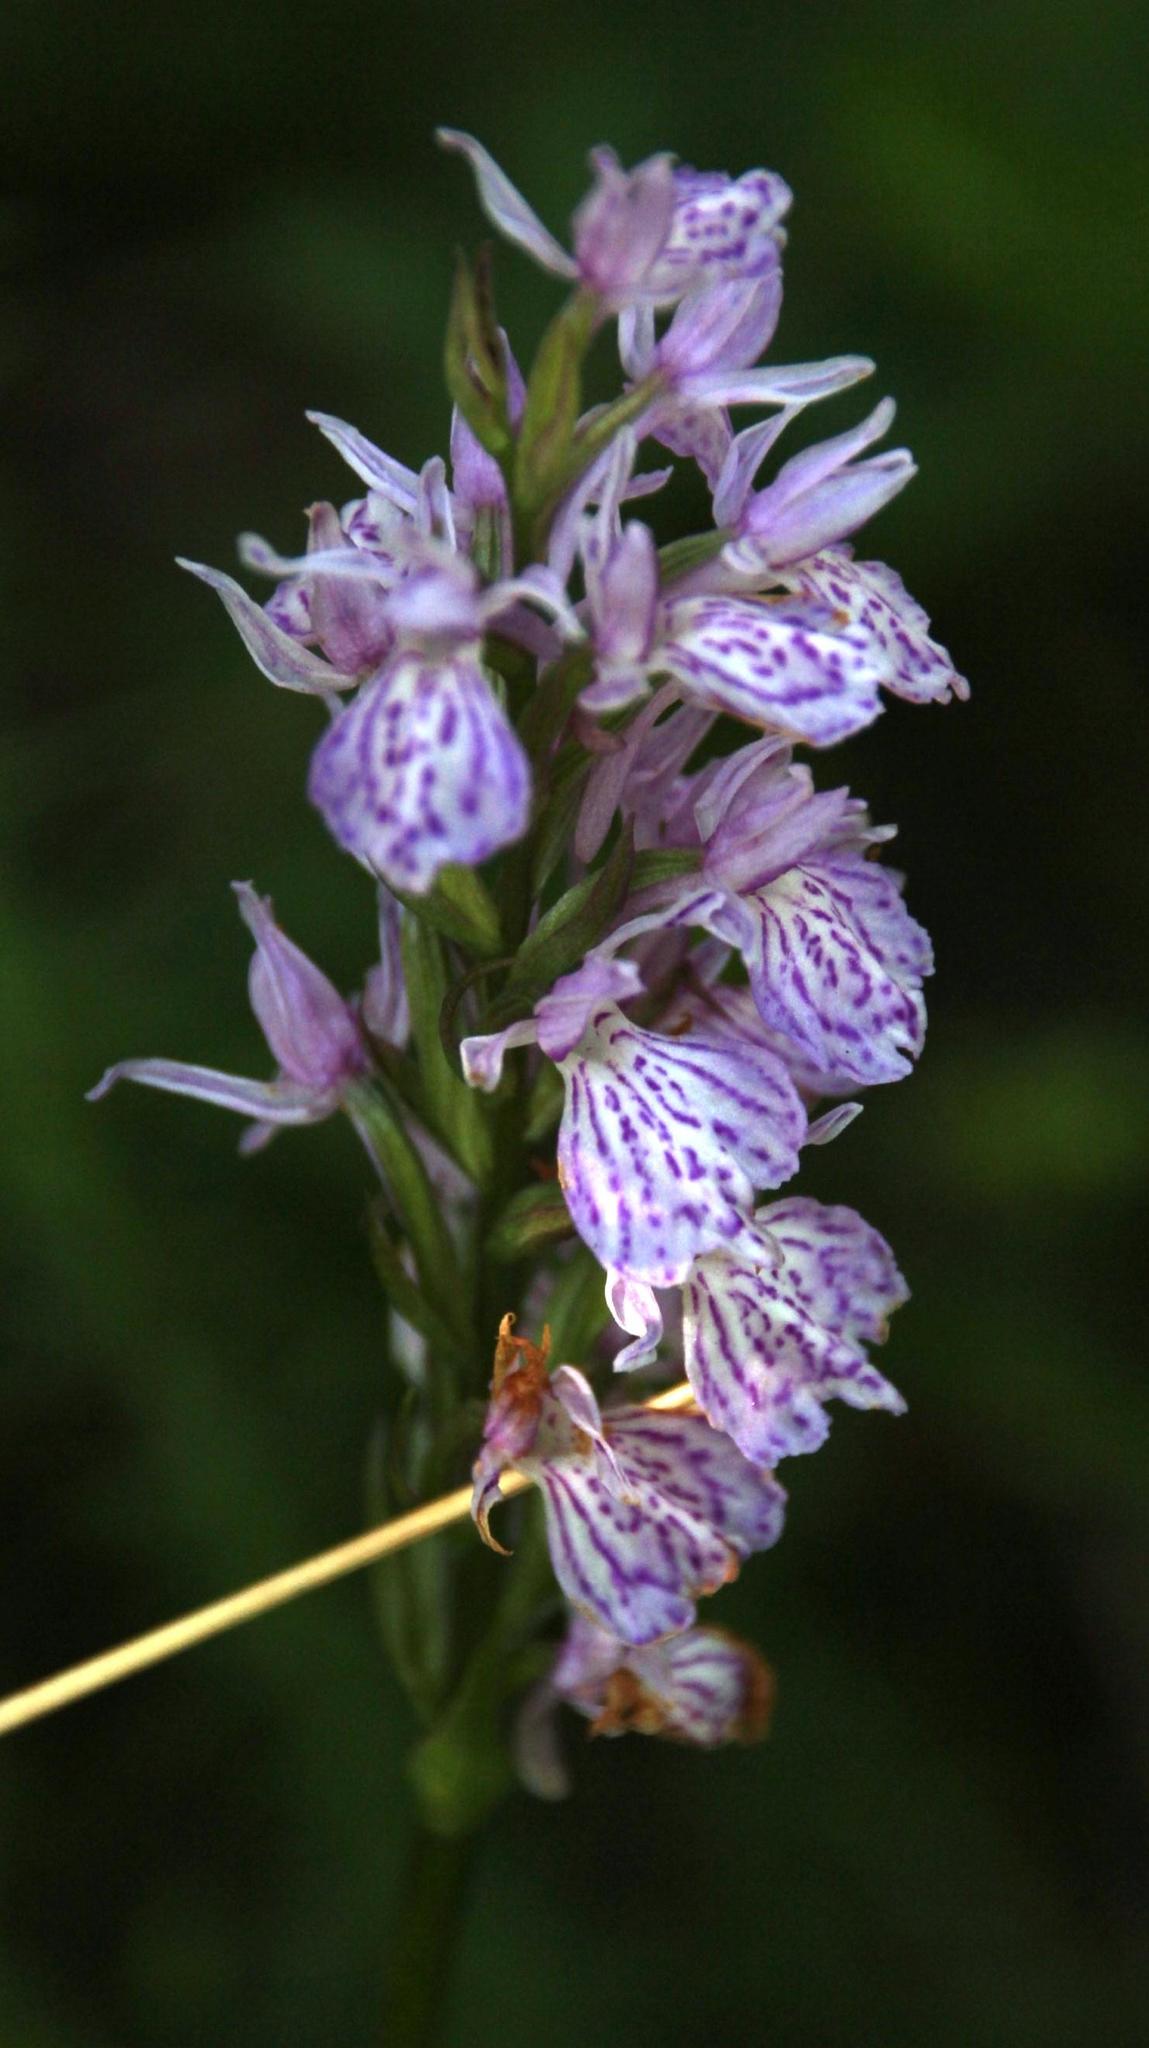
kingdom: Plantae
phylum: Tracheophyta
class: Liliopsida
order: Asparagales
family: Orchidaceae
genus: Dactylorhiza
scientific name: Dactylorhiza maculata
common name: Heath spotted-orchid
